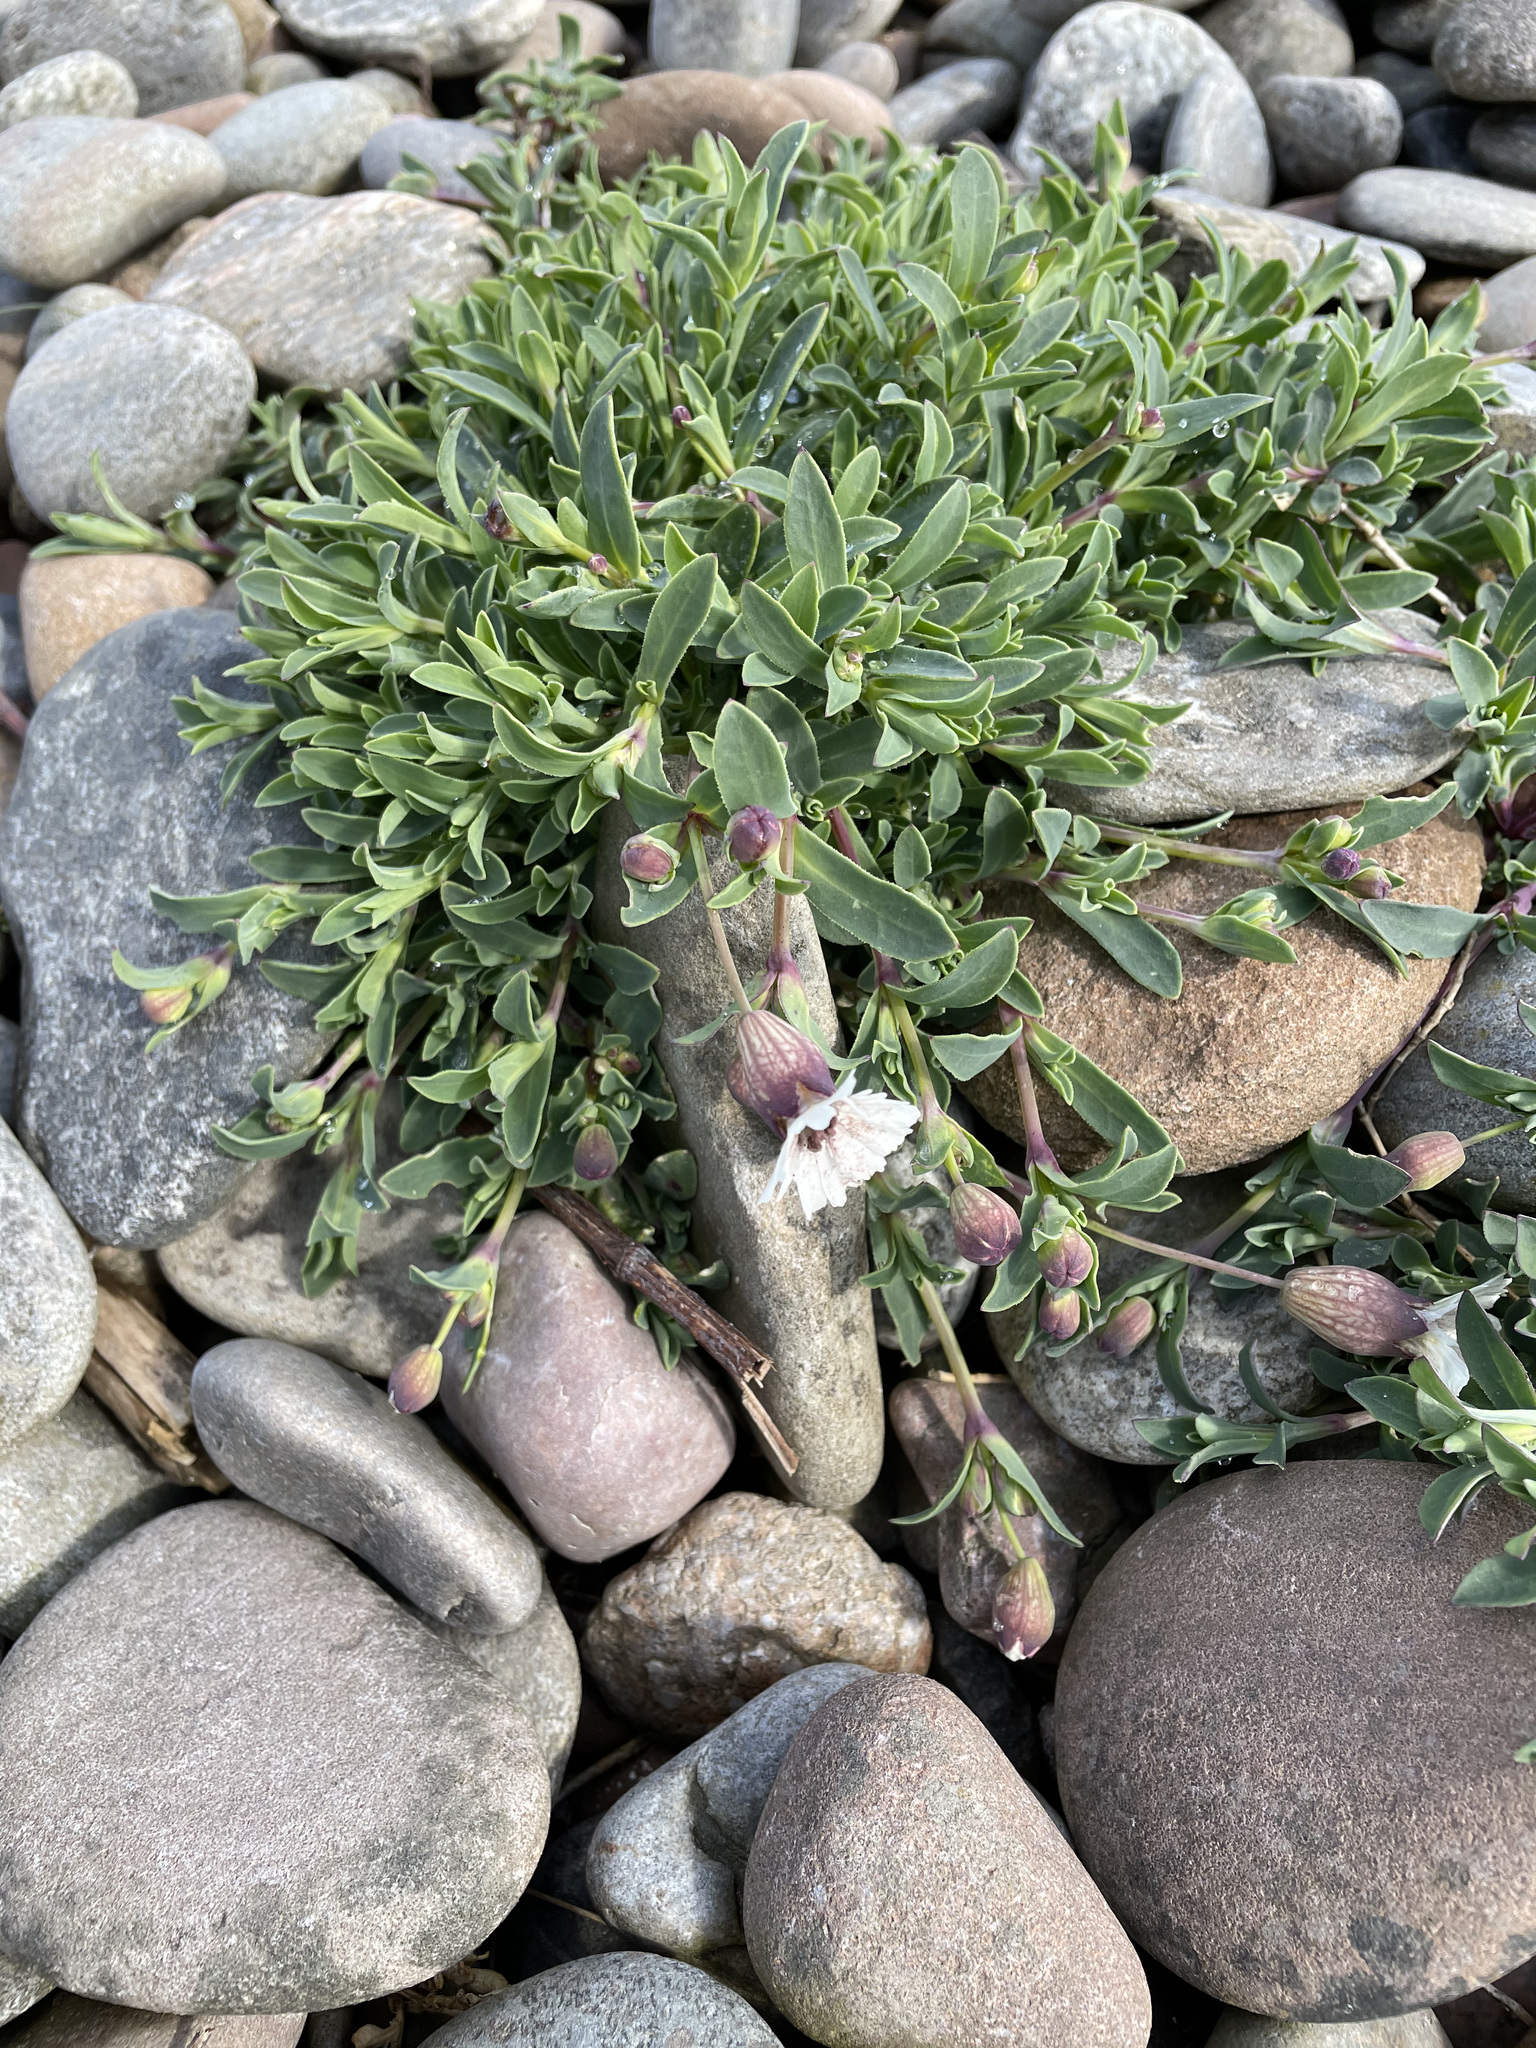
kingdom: Plantae
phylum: Tracheophyta
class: Magnoliopsida
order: Caryophyllales
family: Caryophyllaceae
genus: Silene
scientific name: Silene uniflora
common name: Sea campion
